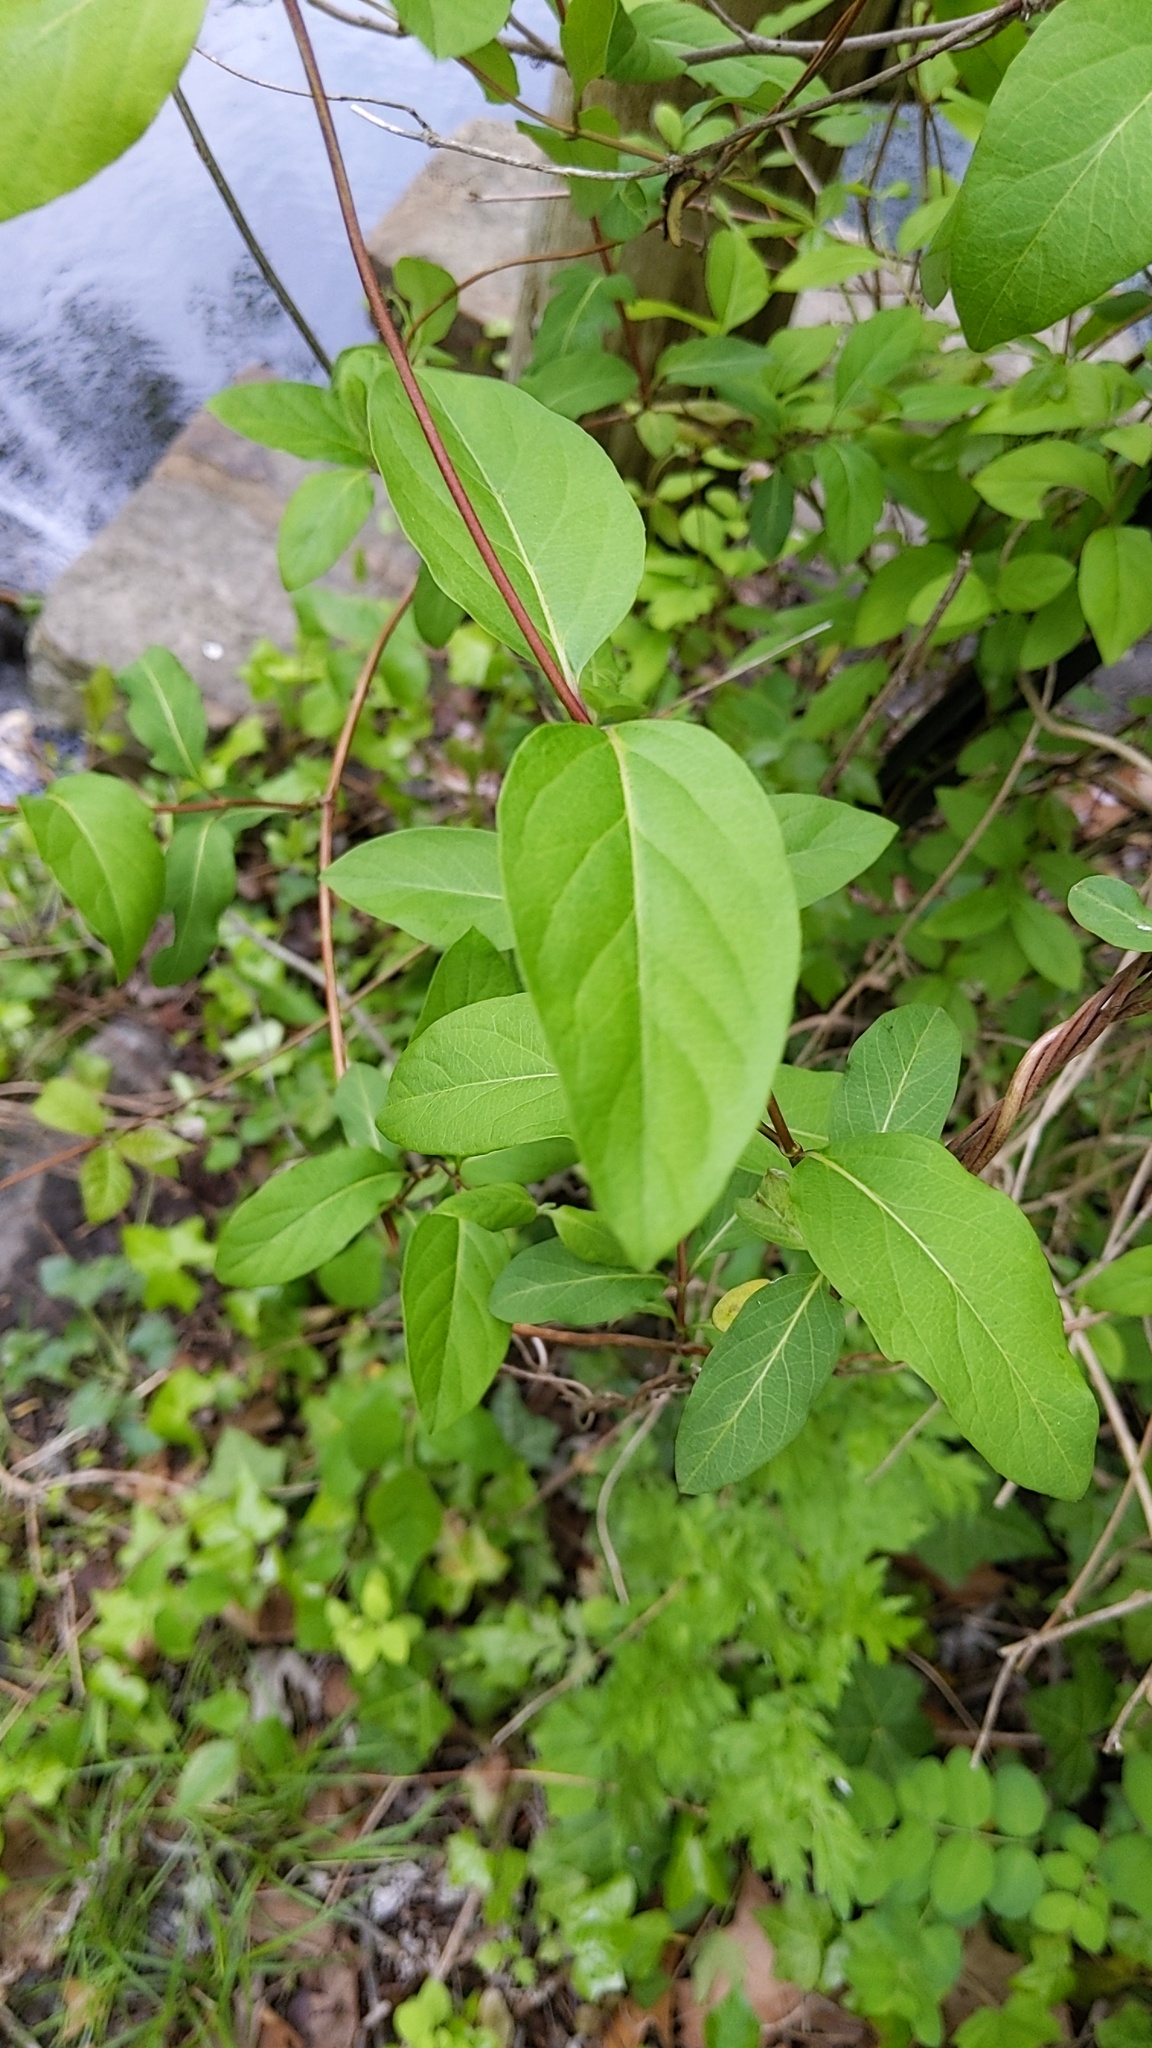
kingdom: Plantae
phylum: Tracheophyta
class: Magnoliopsida
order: Dipsacales
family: Caprifoliaceae
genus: Lonicera
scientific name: Lonicera japonica
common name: Japanese honeysuckle
